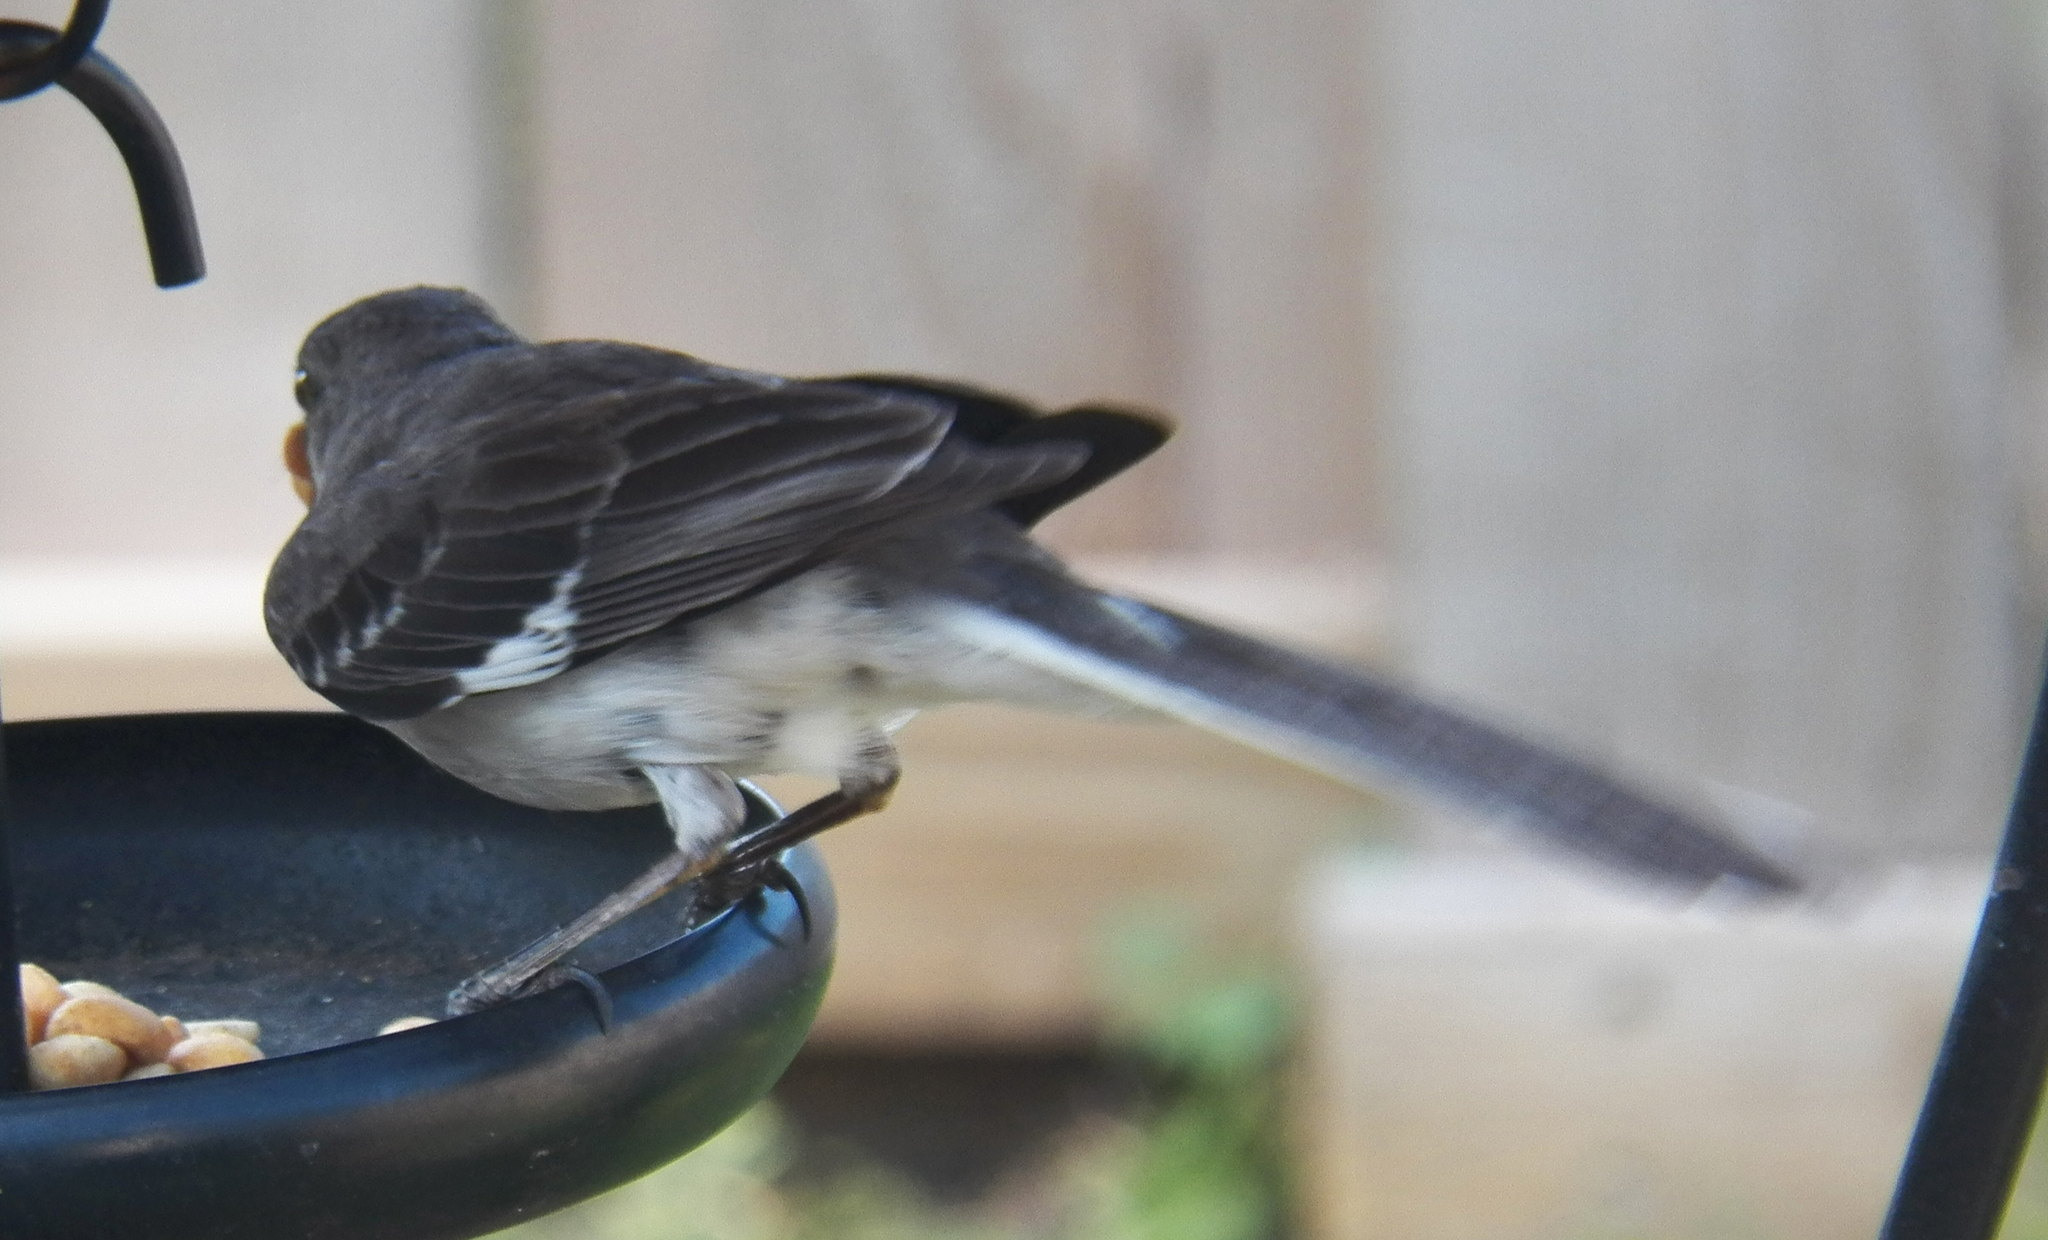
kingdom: Animalia
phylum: Chordata
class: Aves
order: Passeriformes
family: Mimidae
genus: Mimus
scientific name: Mimus polyglottos
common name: Northern mockingbird
